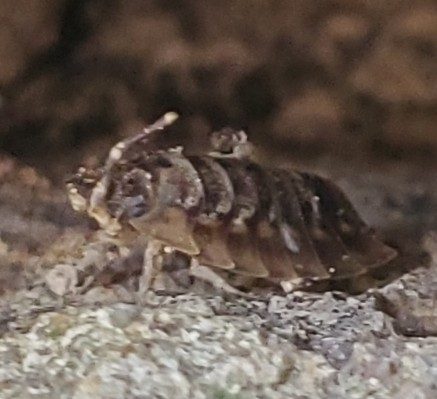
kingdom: Animalia
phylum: Arthropoda
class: Malacostraca
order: Isopoda
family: Oniscidae
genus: Oniscus
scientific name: Oniscus asellus
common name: Common shiny woodlouse
